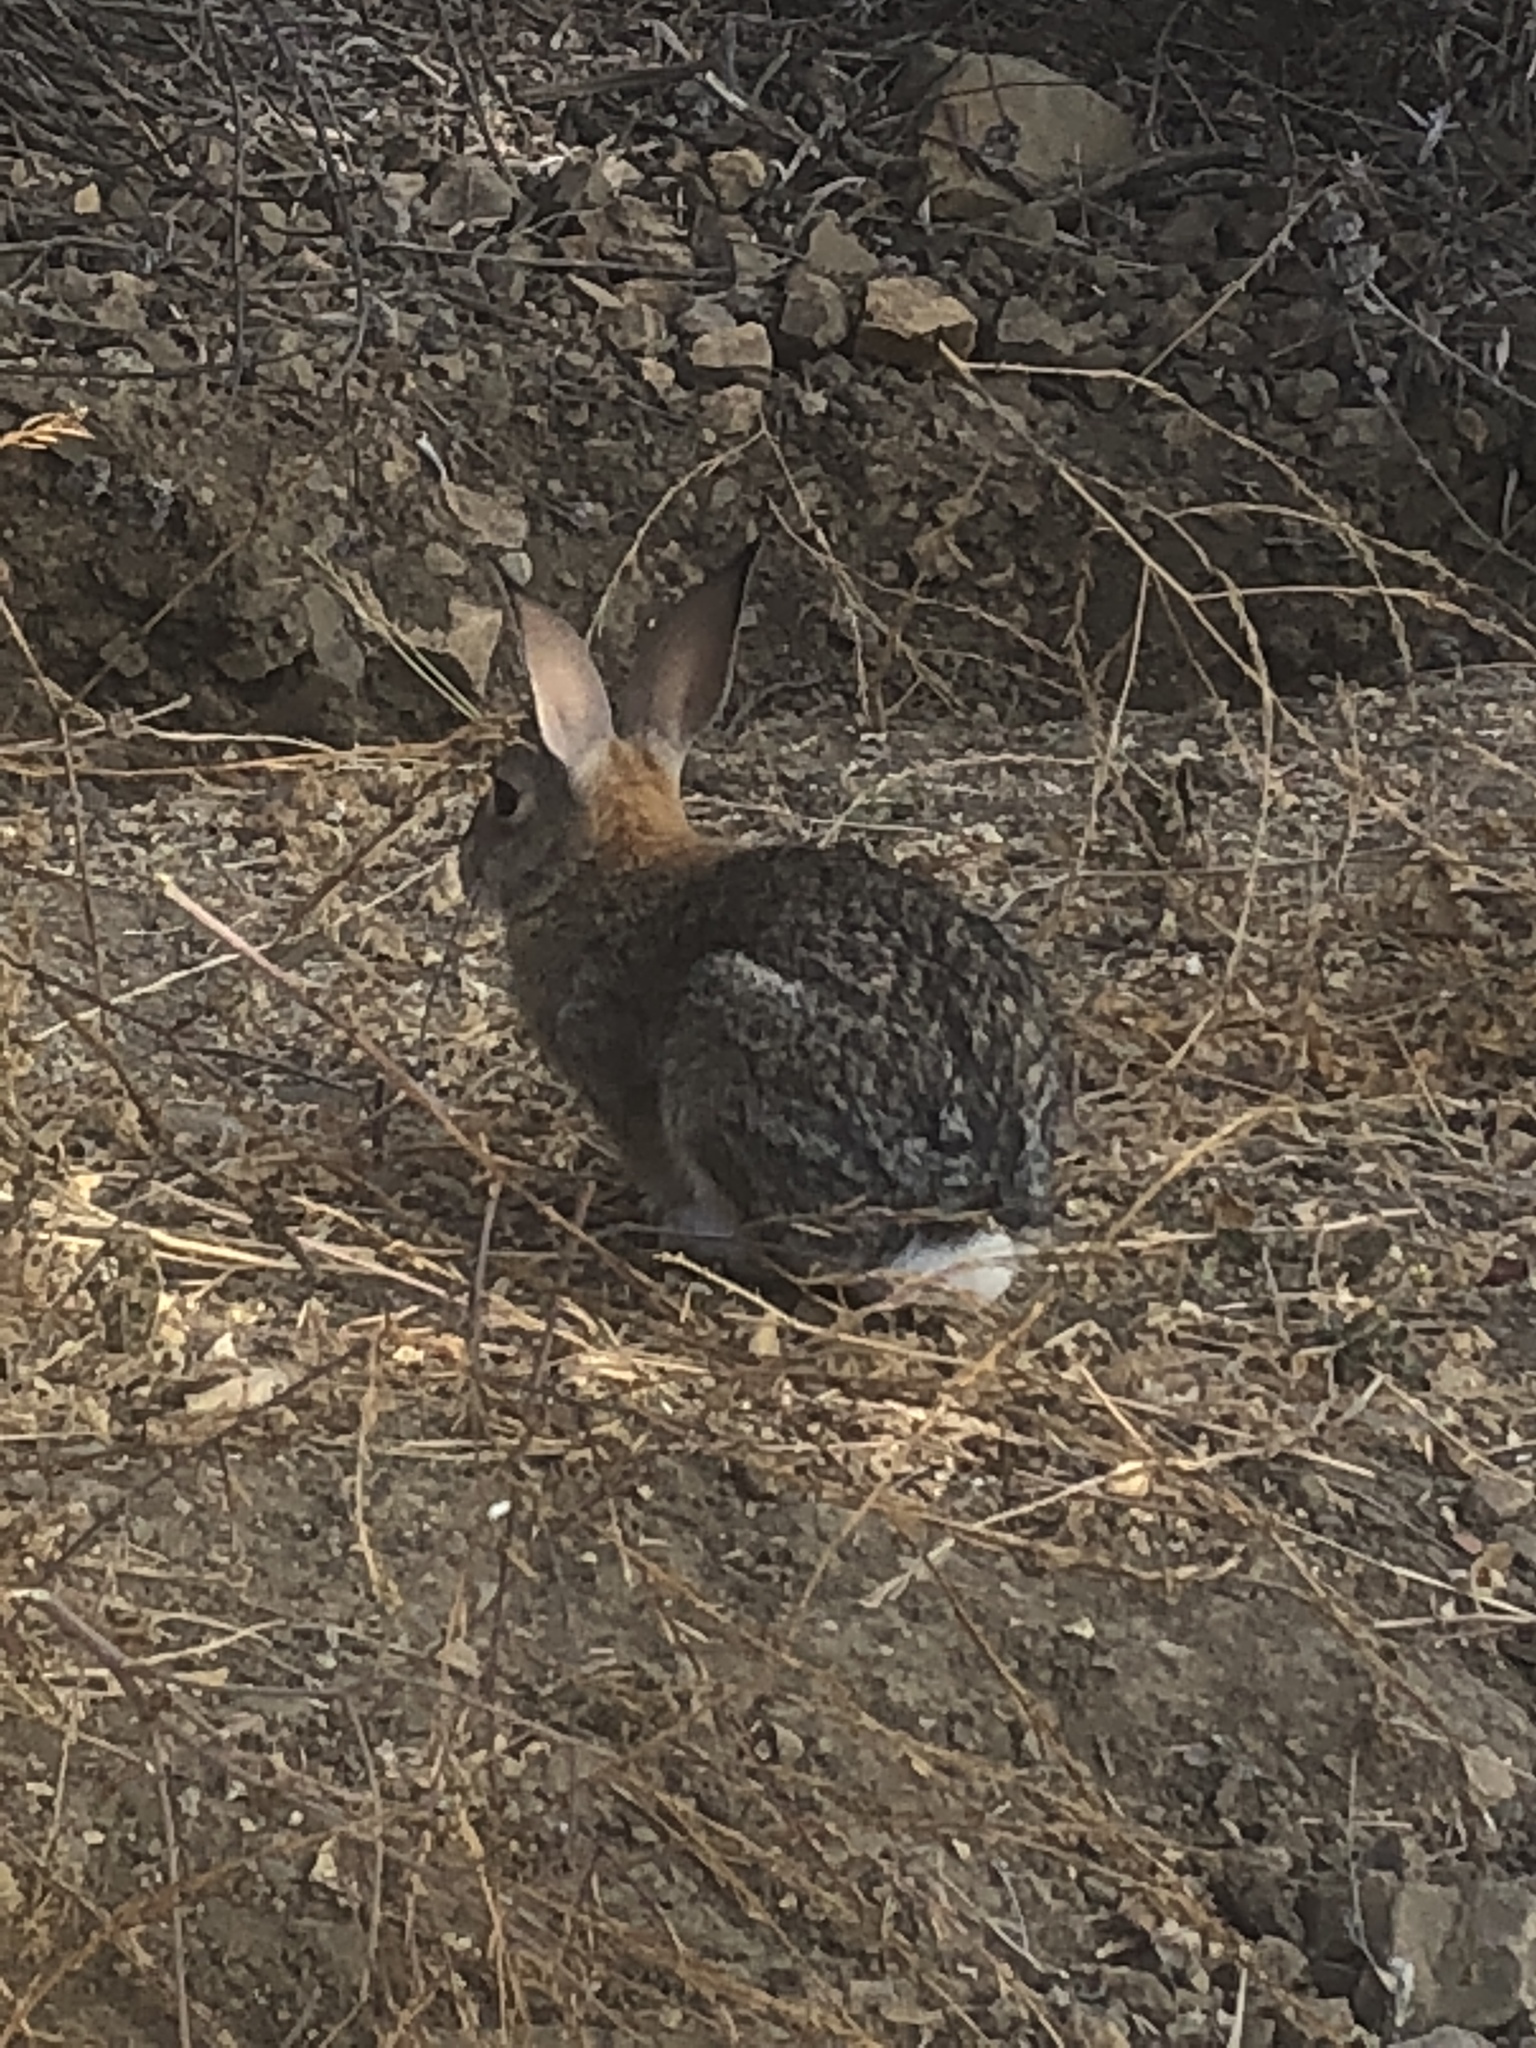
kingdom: Animalia
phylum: Chordata
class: Mammalia
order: Lagomorpha
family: Leporidae
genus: Sylvilagus
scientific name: Sylvilagus audubonii
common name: Desert cottontail
